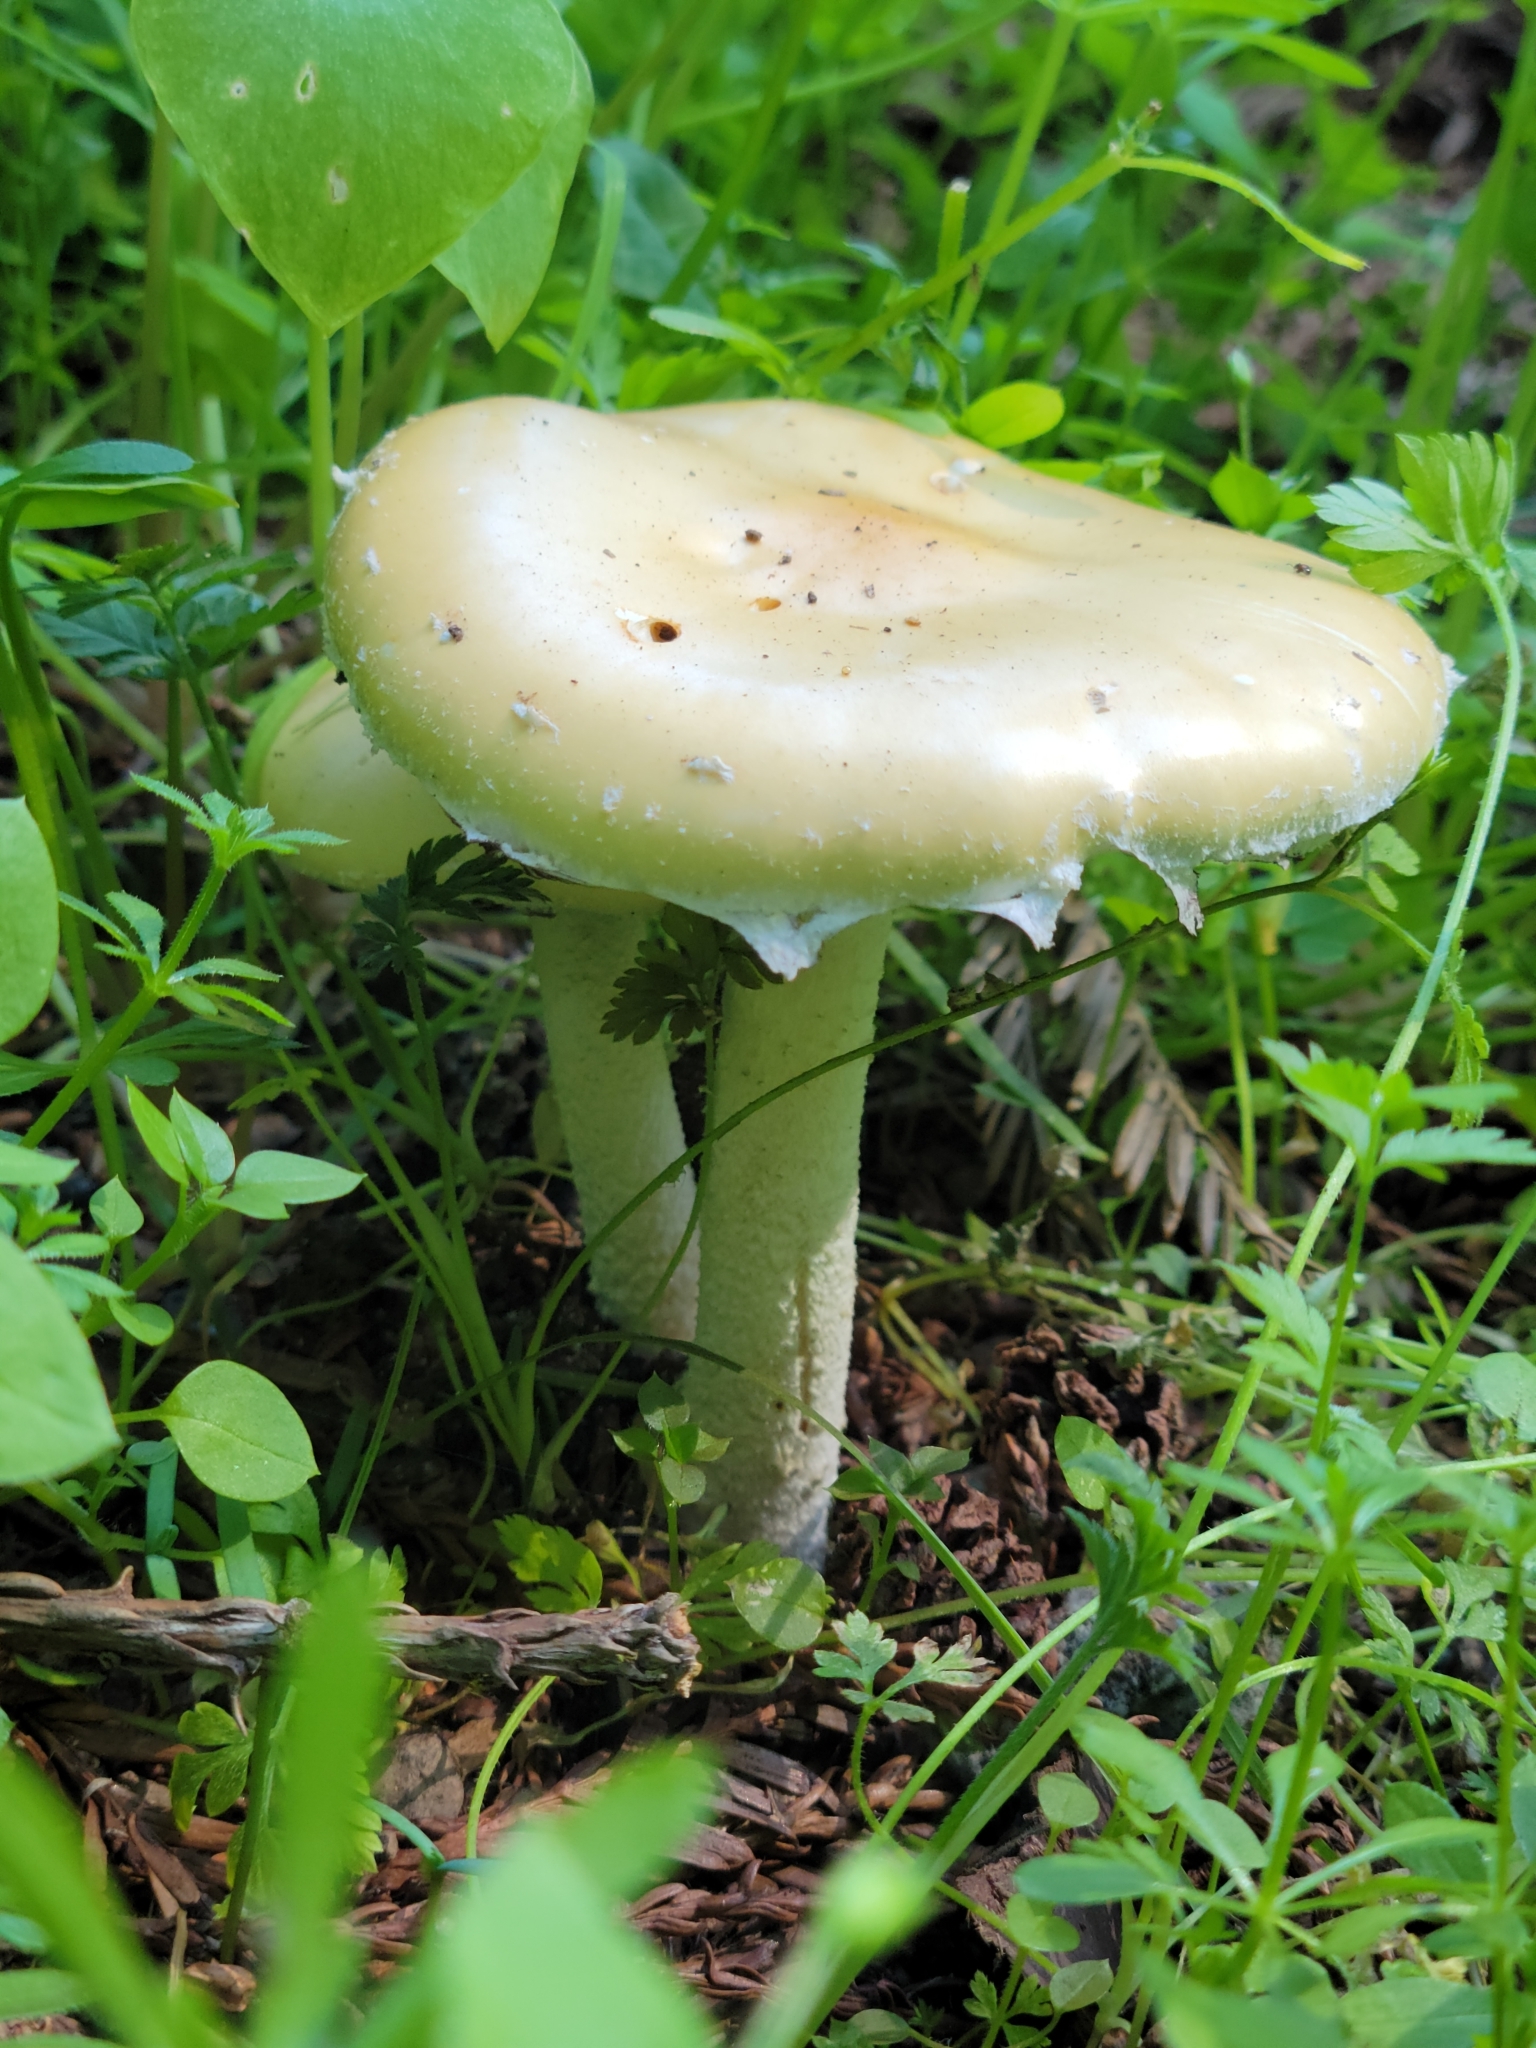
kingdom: Fungi
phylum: Basidiomycota
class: Agaricomycetes
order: Agaricales
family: Strophariaceae
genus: Stropharia
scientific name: Stropharia ambigua
